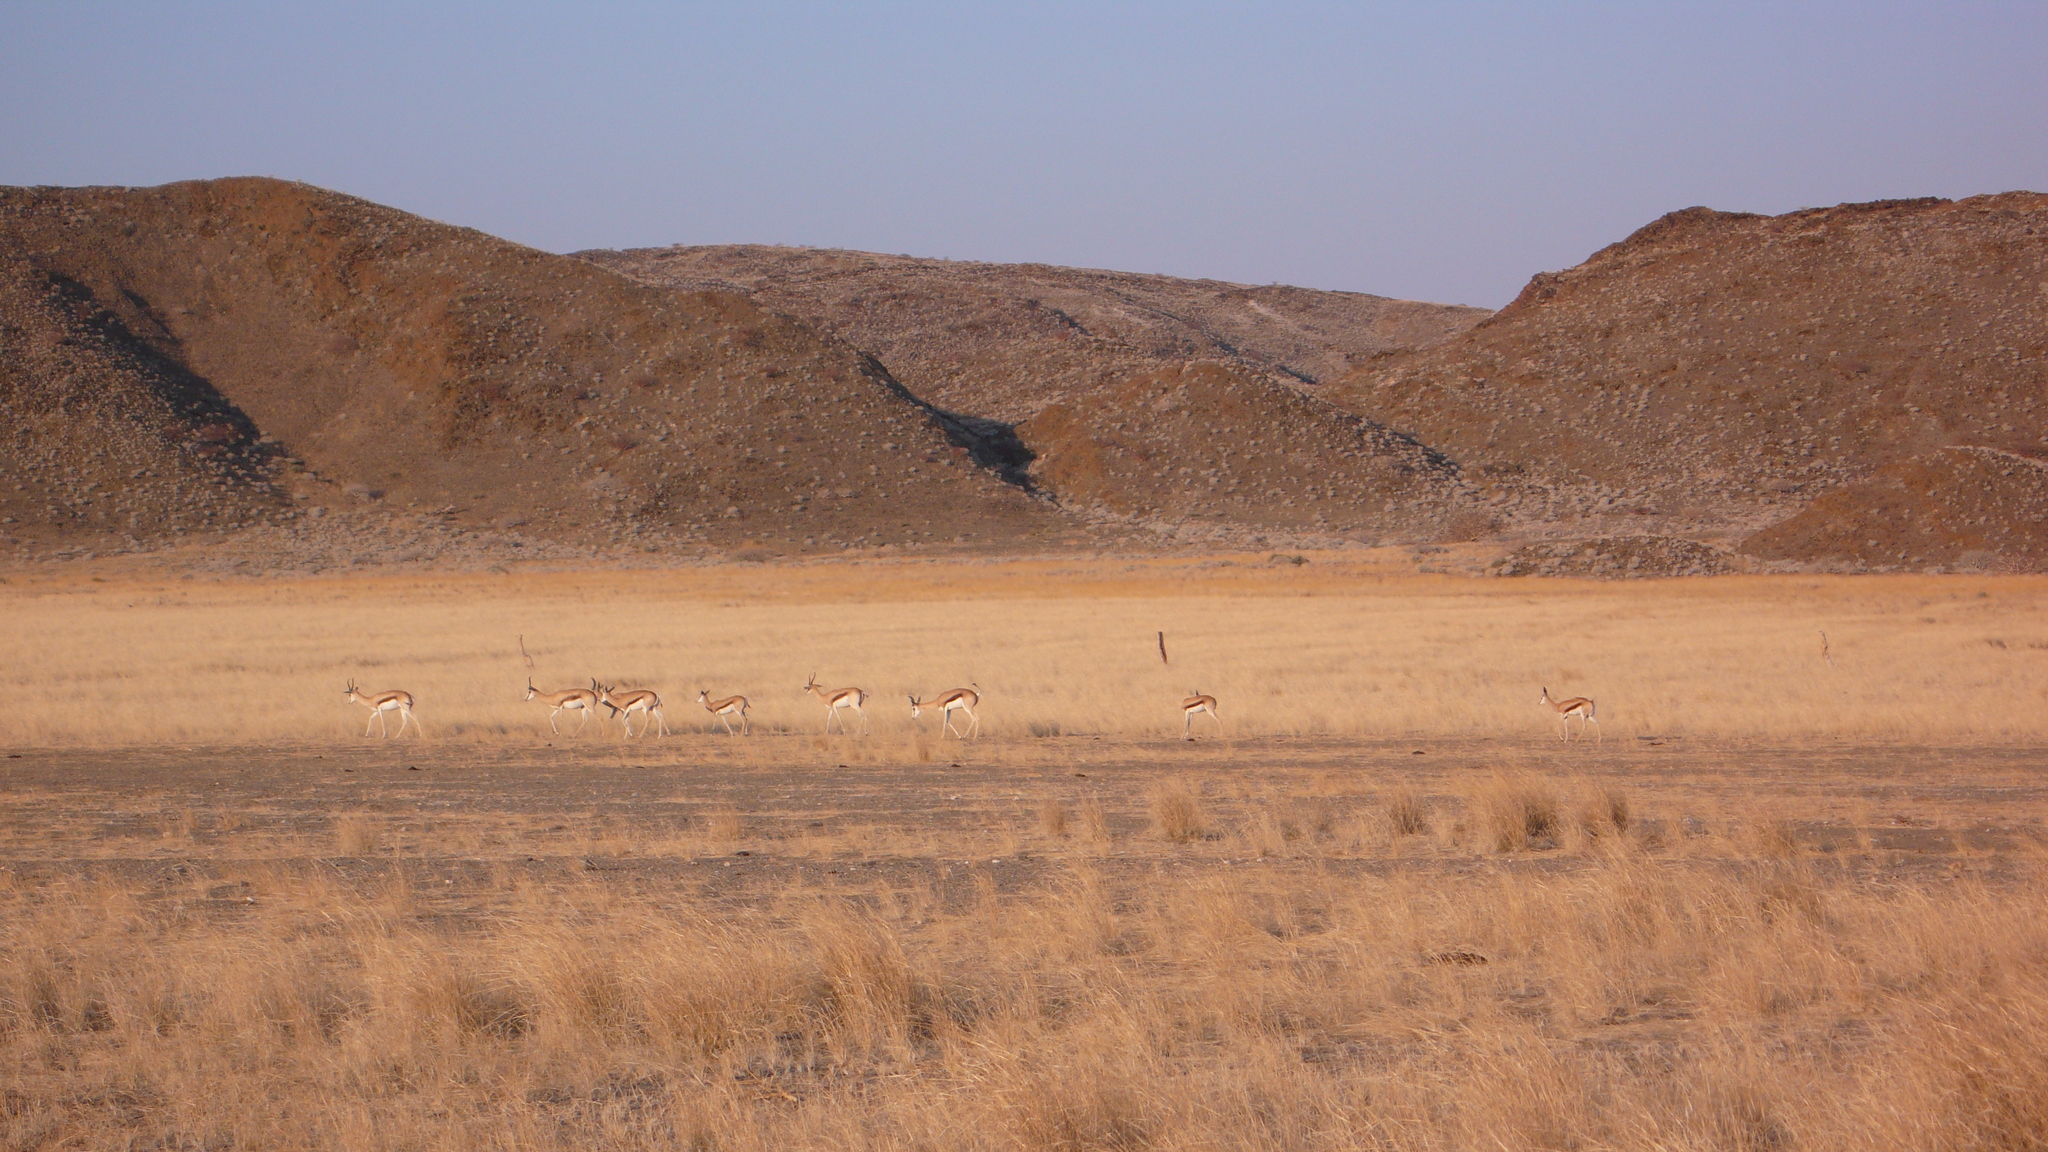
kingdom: Animalia
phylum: Chordata
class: Mammalia
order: Artiodactyla
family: Bovidae
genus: Antidorcas
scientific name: Antidorcas marsupialis
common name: Springbok
